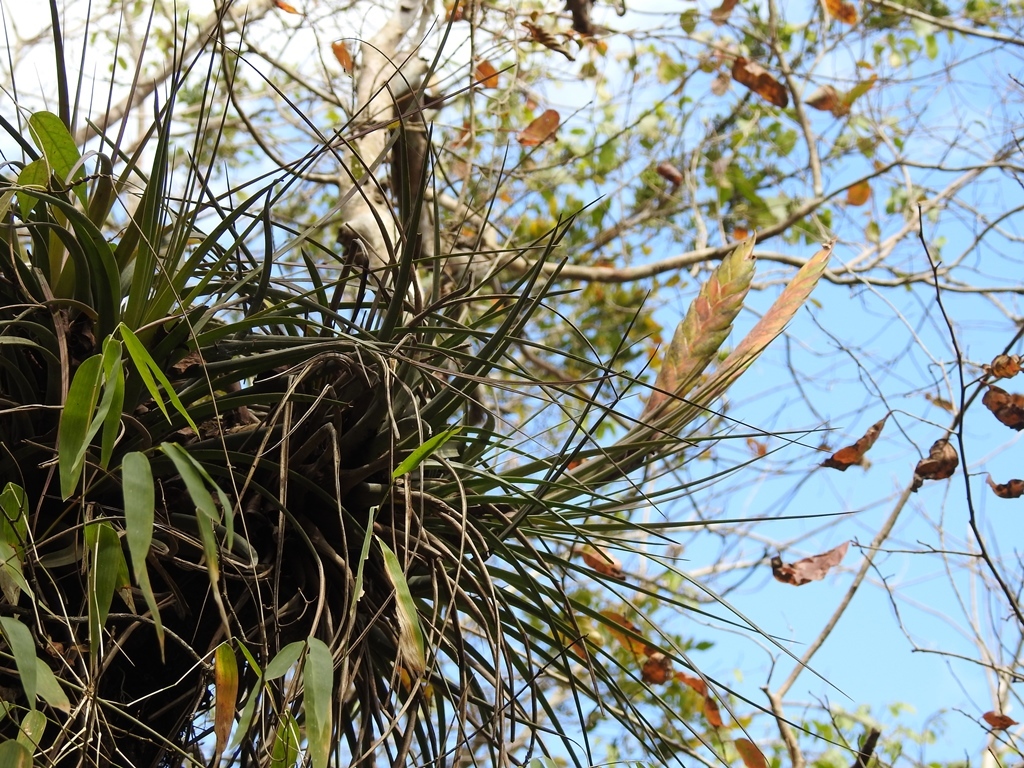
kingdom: Plantae
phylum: Tracheophyta
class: Liliopsida
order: Poales
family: Bromeliaceae
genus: Tillandsia
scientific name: Tillandsia flavobracteata
